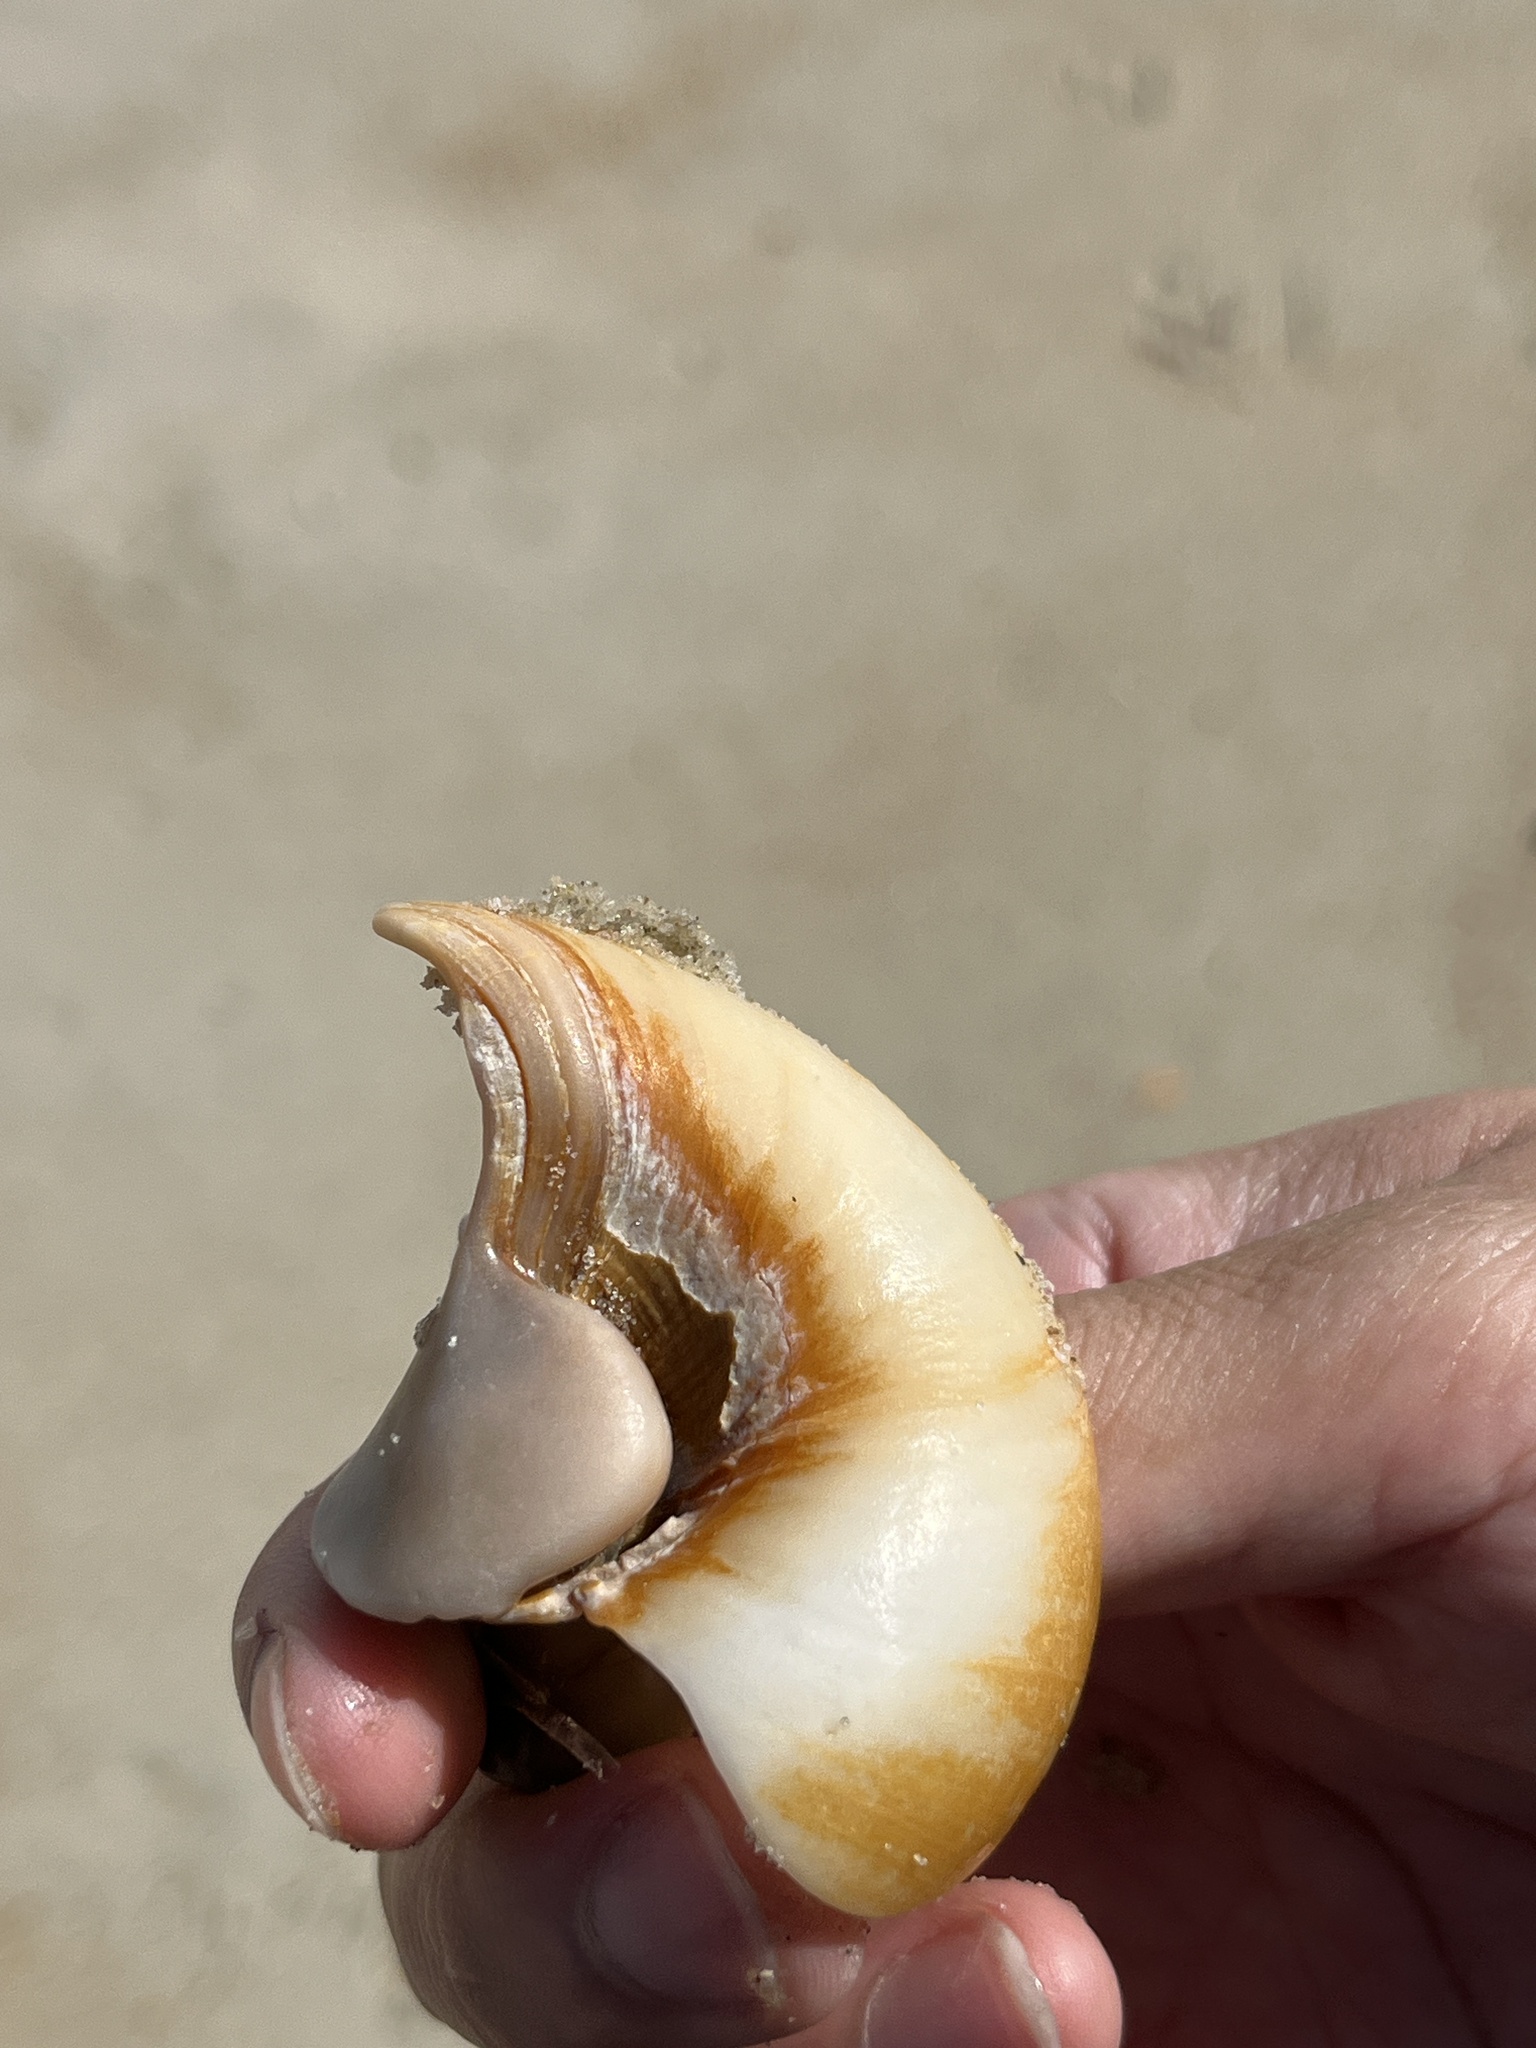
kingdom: Animalia
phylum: Mollusca
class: Gastropoda
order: Littorinimorpha
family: Naticidae
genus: Neverita
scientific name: Neverita duplicata
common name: Lobed moonsnail
